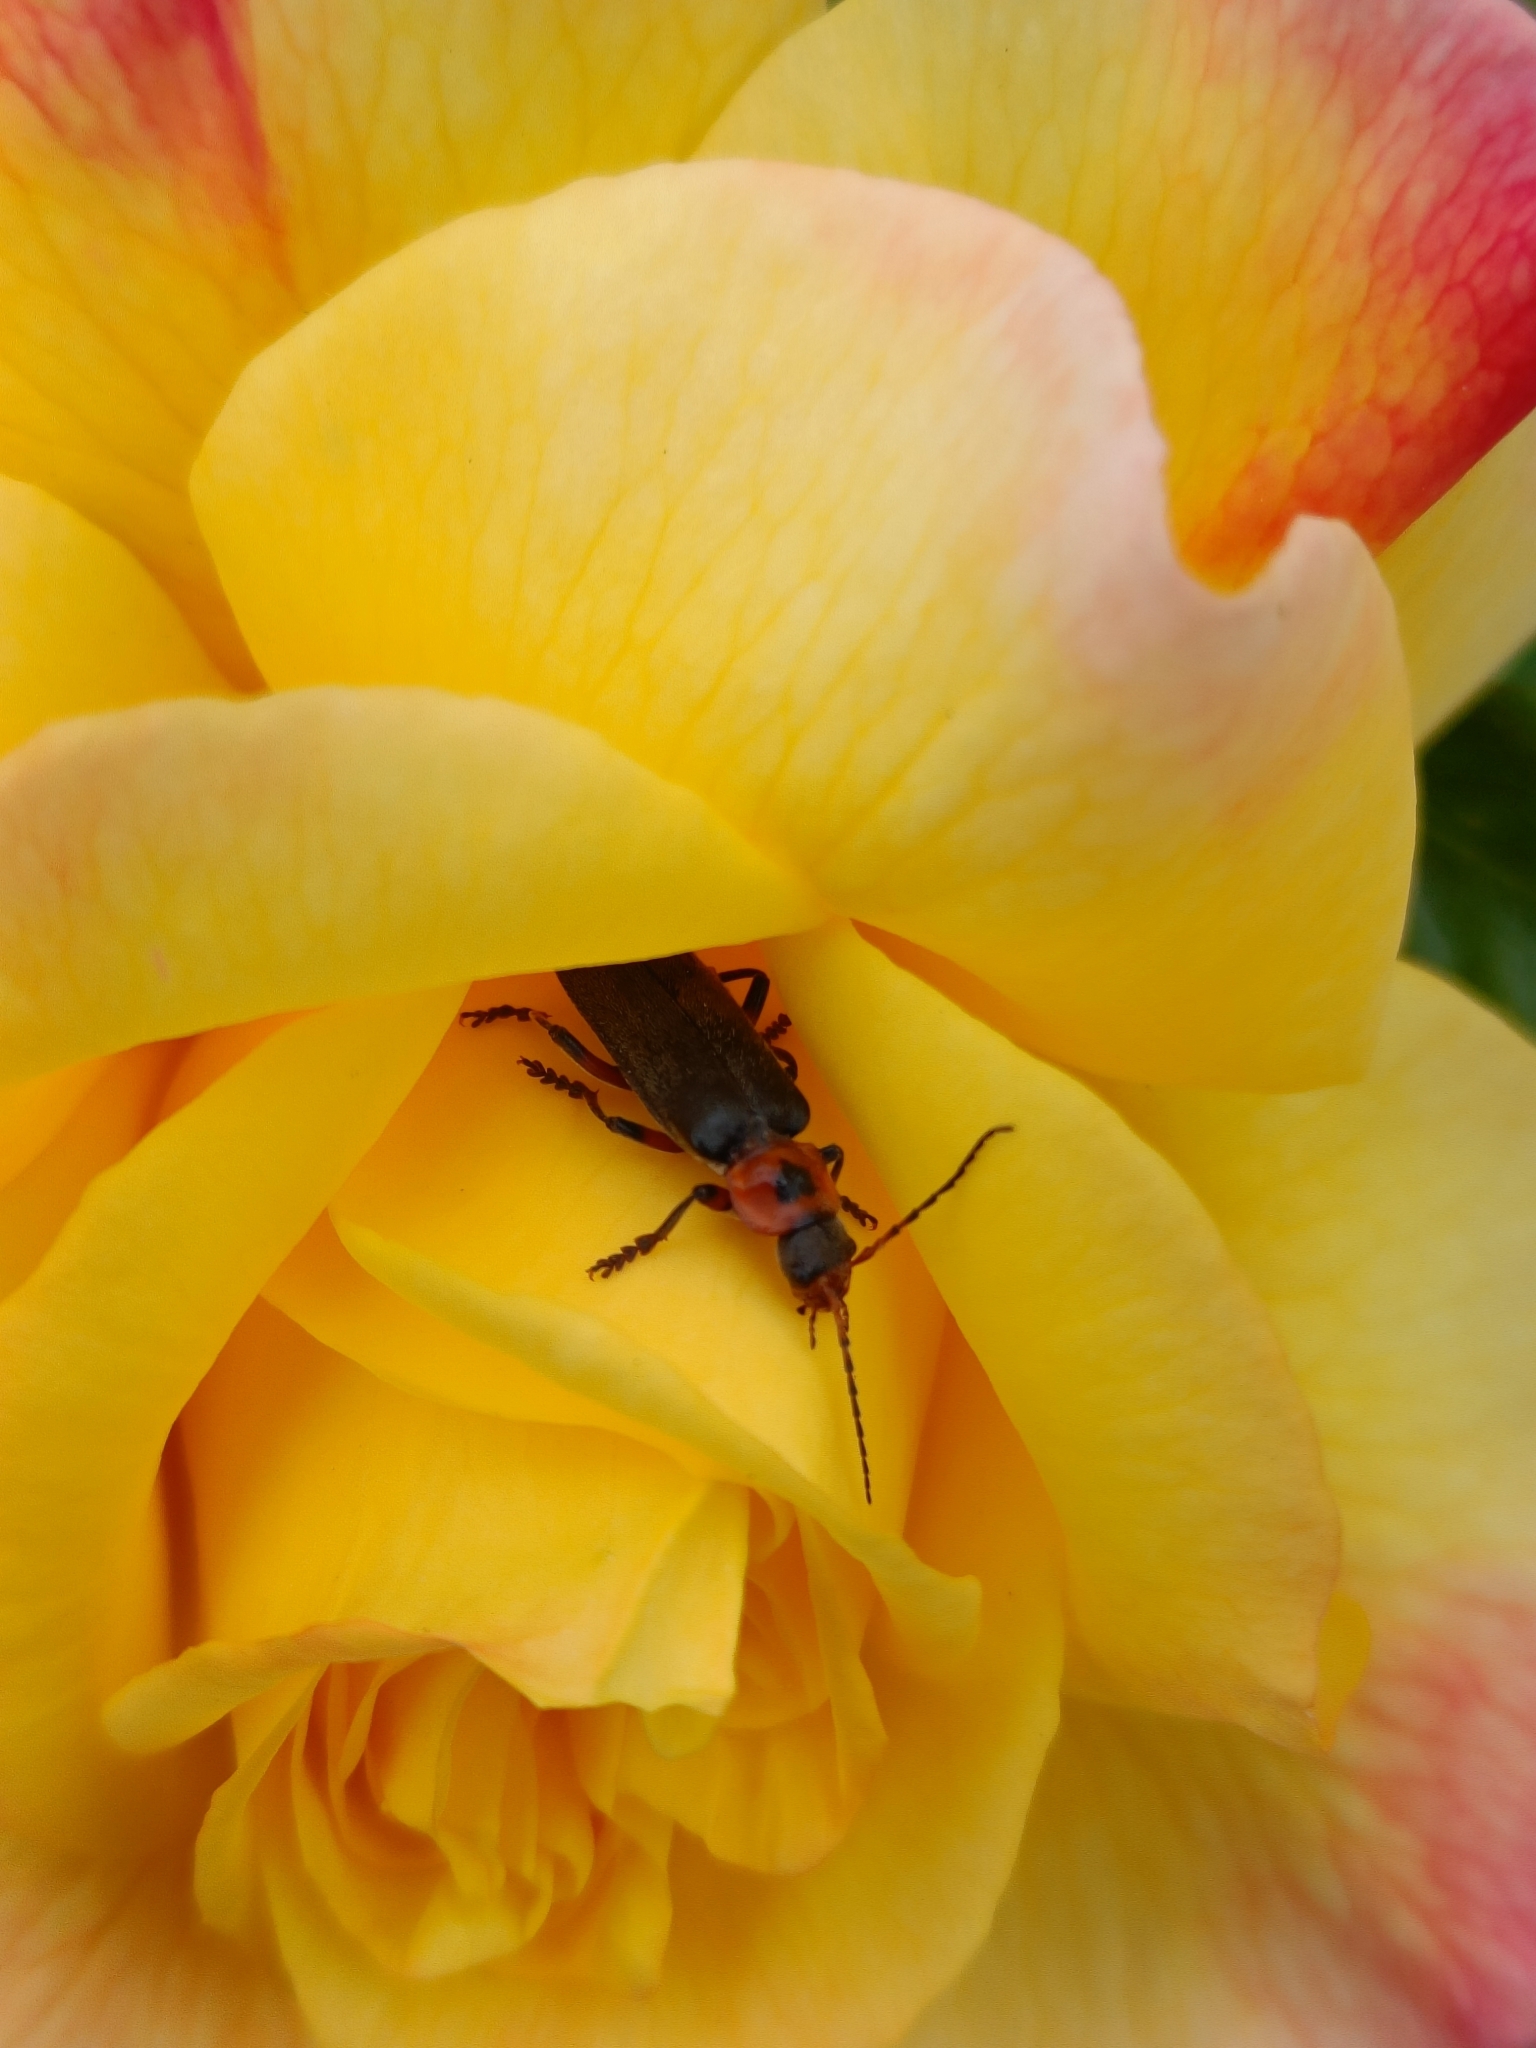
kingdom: Animalia
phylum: Arthropoda
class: Insecta
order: Coleoptera
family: Cantharidae
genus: Cantharis
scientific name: Cantharis rustica
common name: Soldier beetle
